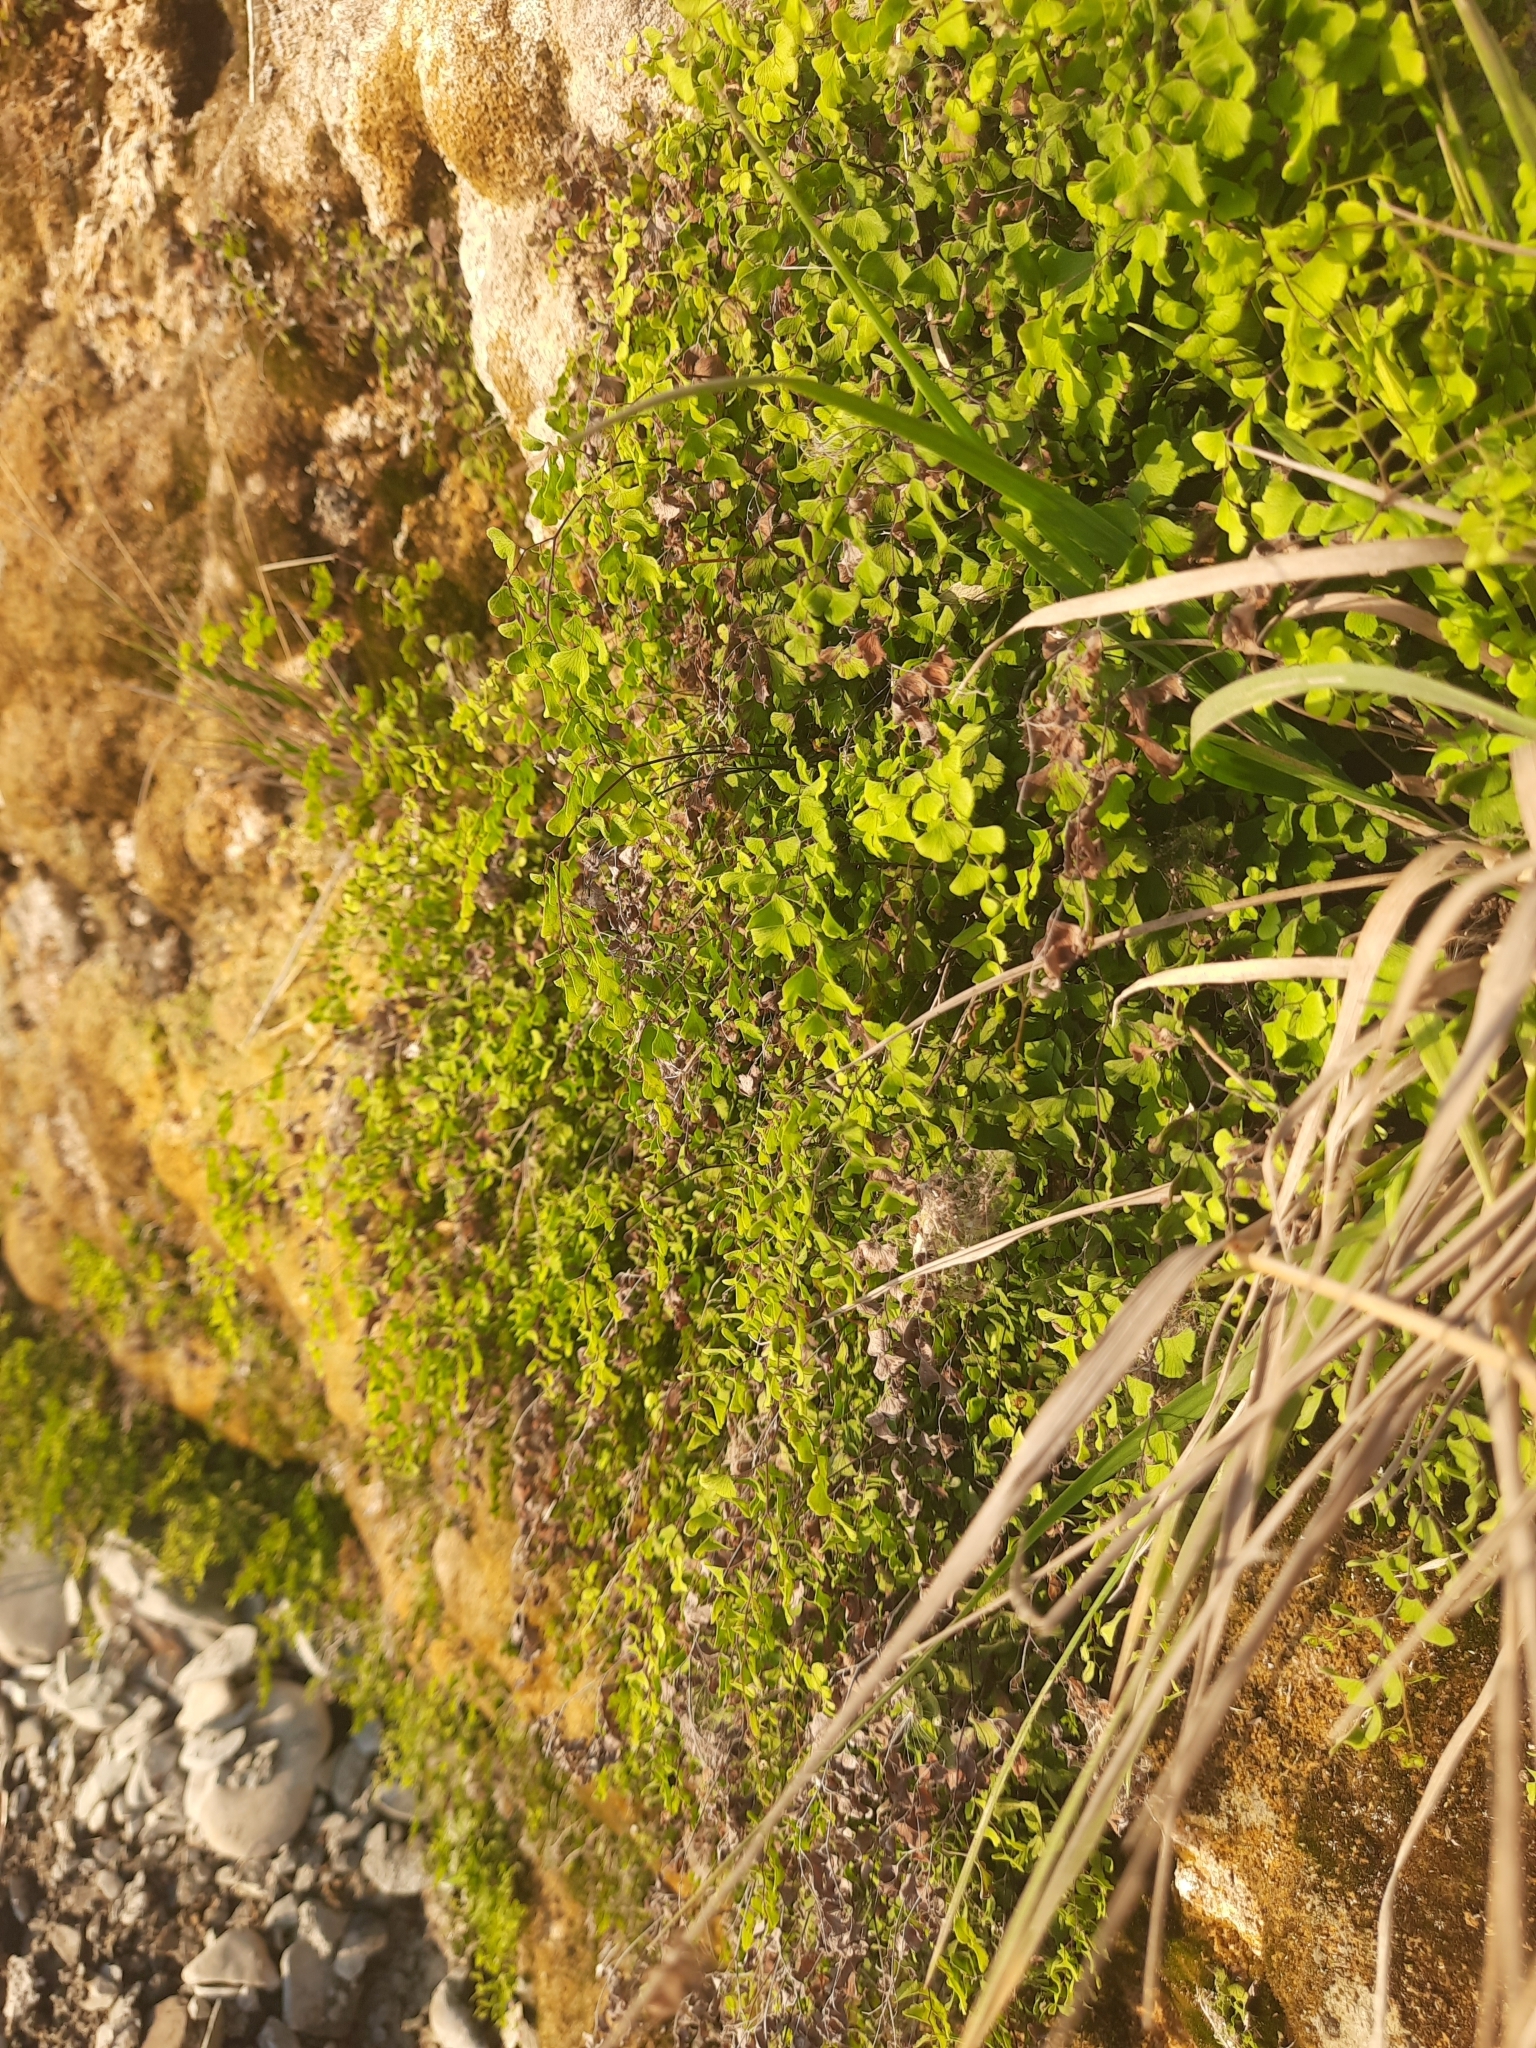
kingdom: Plantae
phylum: Tracheophyta
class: Polypodiopsida
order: Polypodiales
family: Pteridaceae
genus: Adiantum
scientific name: Adiantum capillus-veneris
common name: Maidenhair fern
